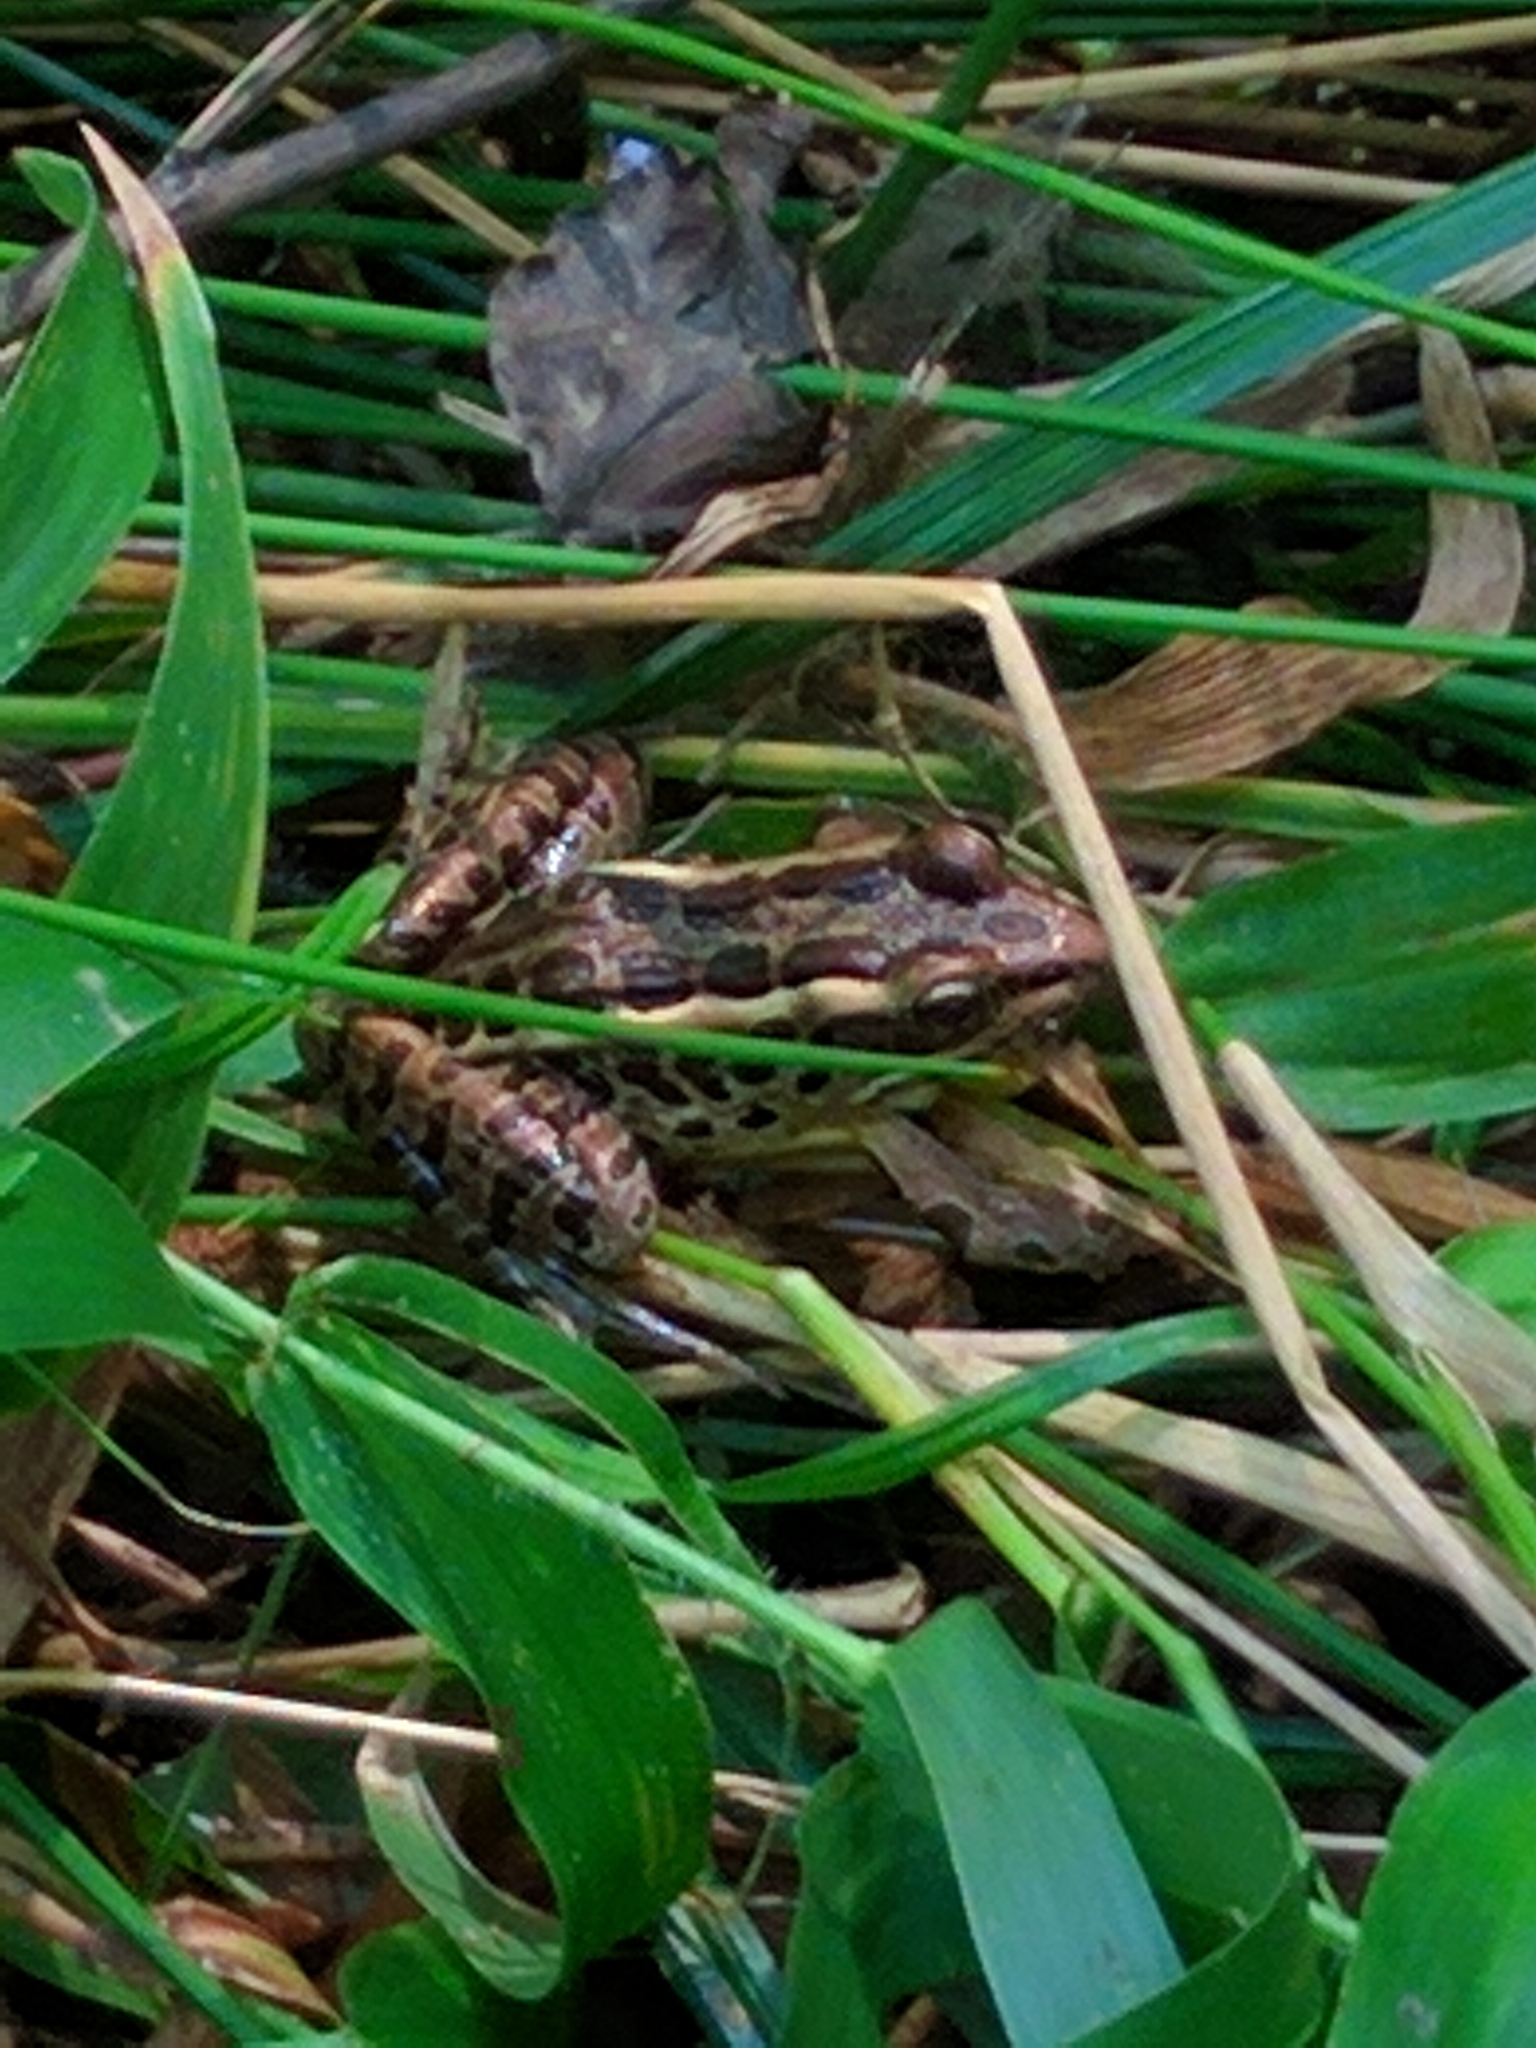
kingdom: Animalia
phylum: Chordata
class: Amphibia
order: Anura
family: Ranidae
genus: Lithobates
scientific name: Lithobates palustris
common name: Pickerel frog
